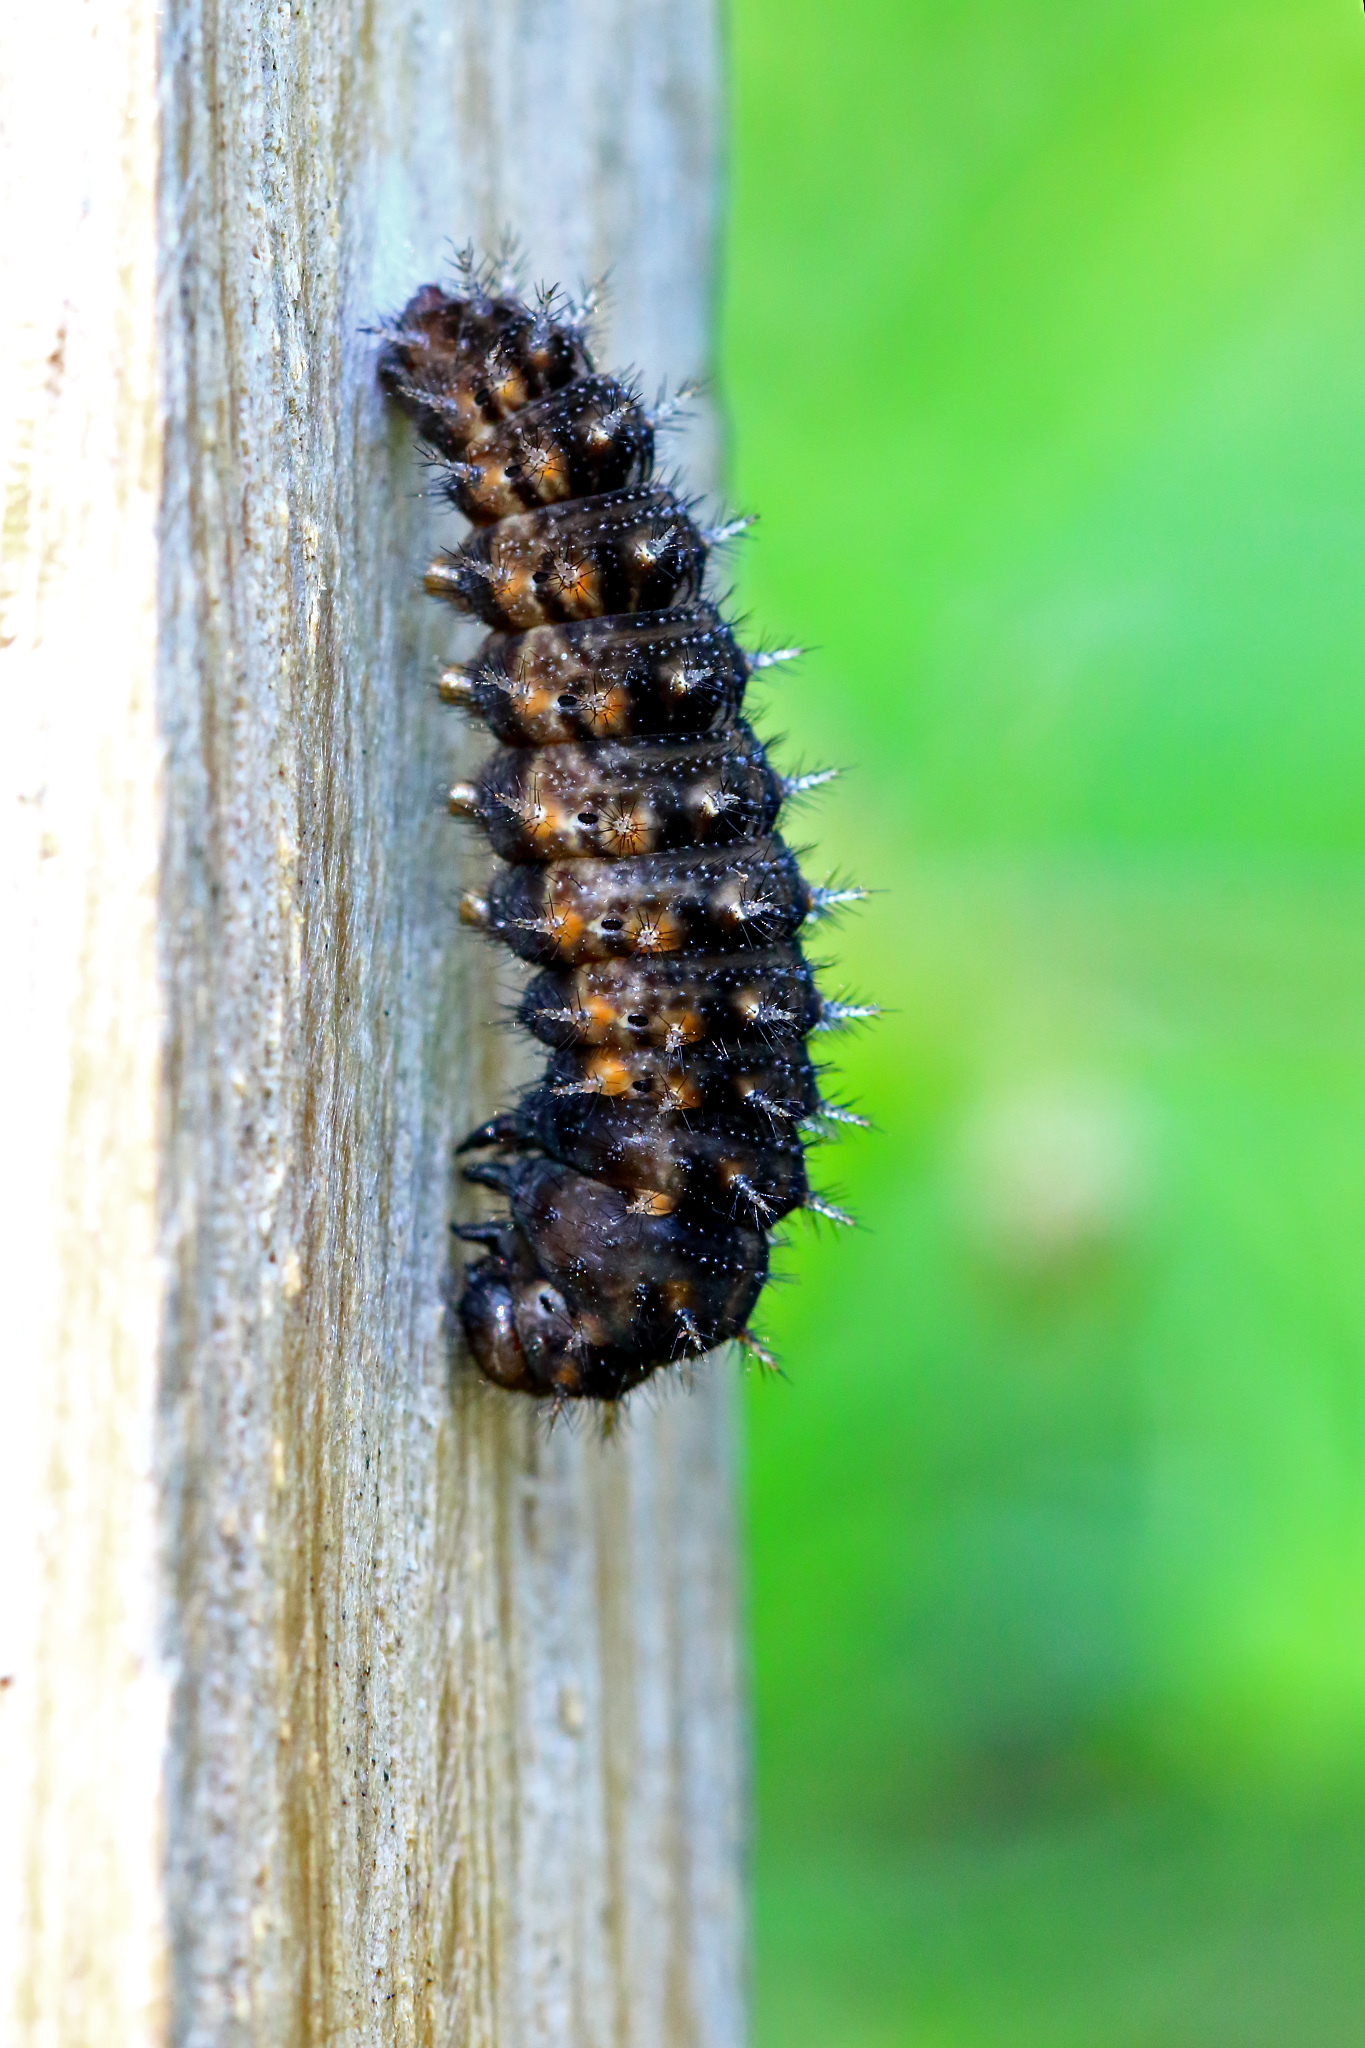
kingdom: Animalia
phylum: Arthropoda
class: Insecta
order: Lepidoptera
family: Nymphalidae
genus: Issoria
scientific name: Issoria lathonia
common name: Queen of spain fritillary
